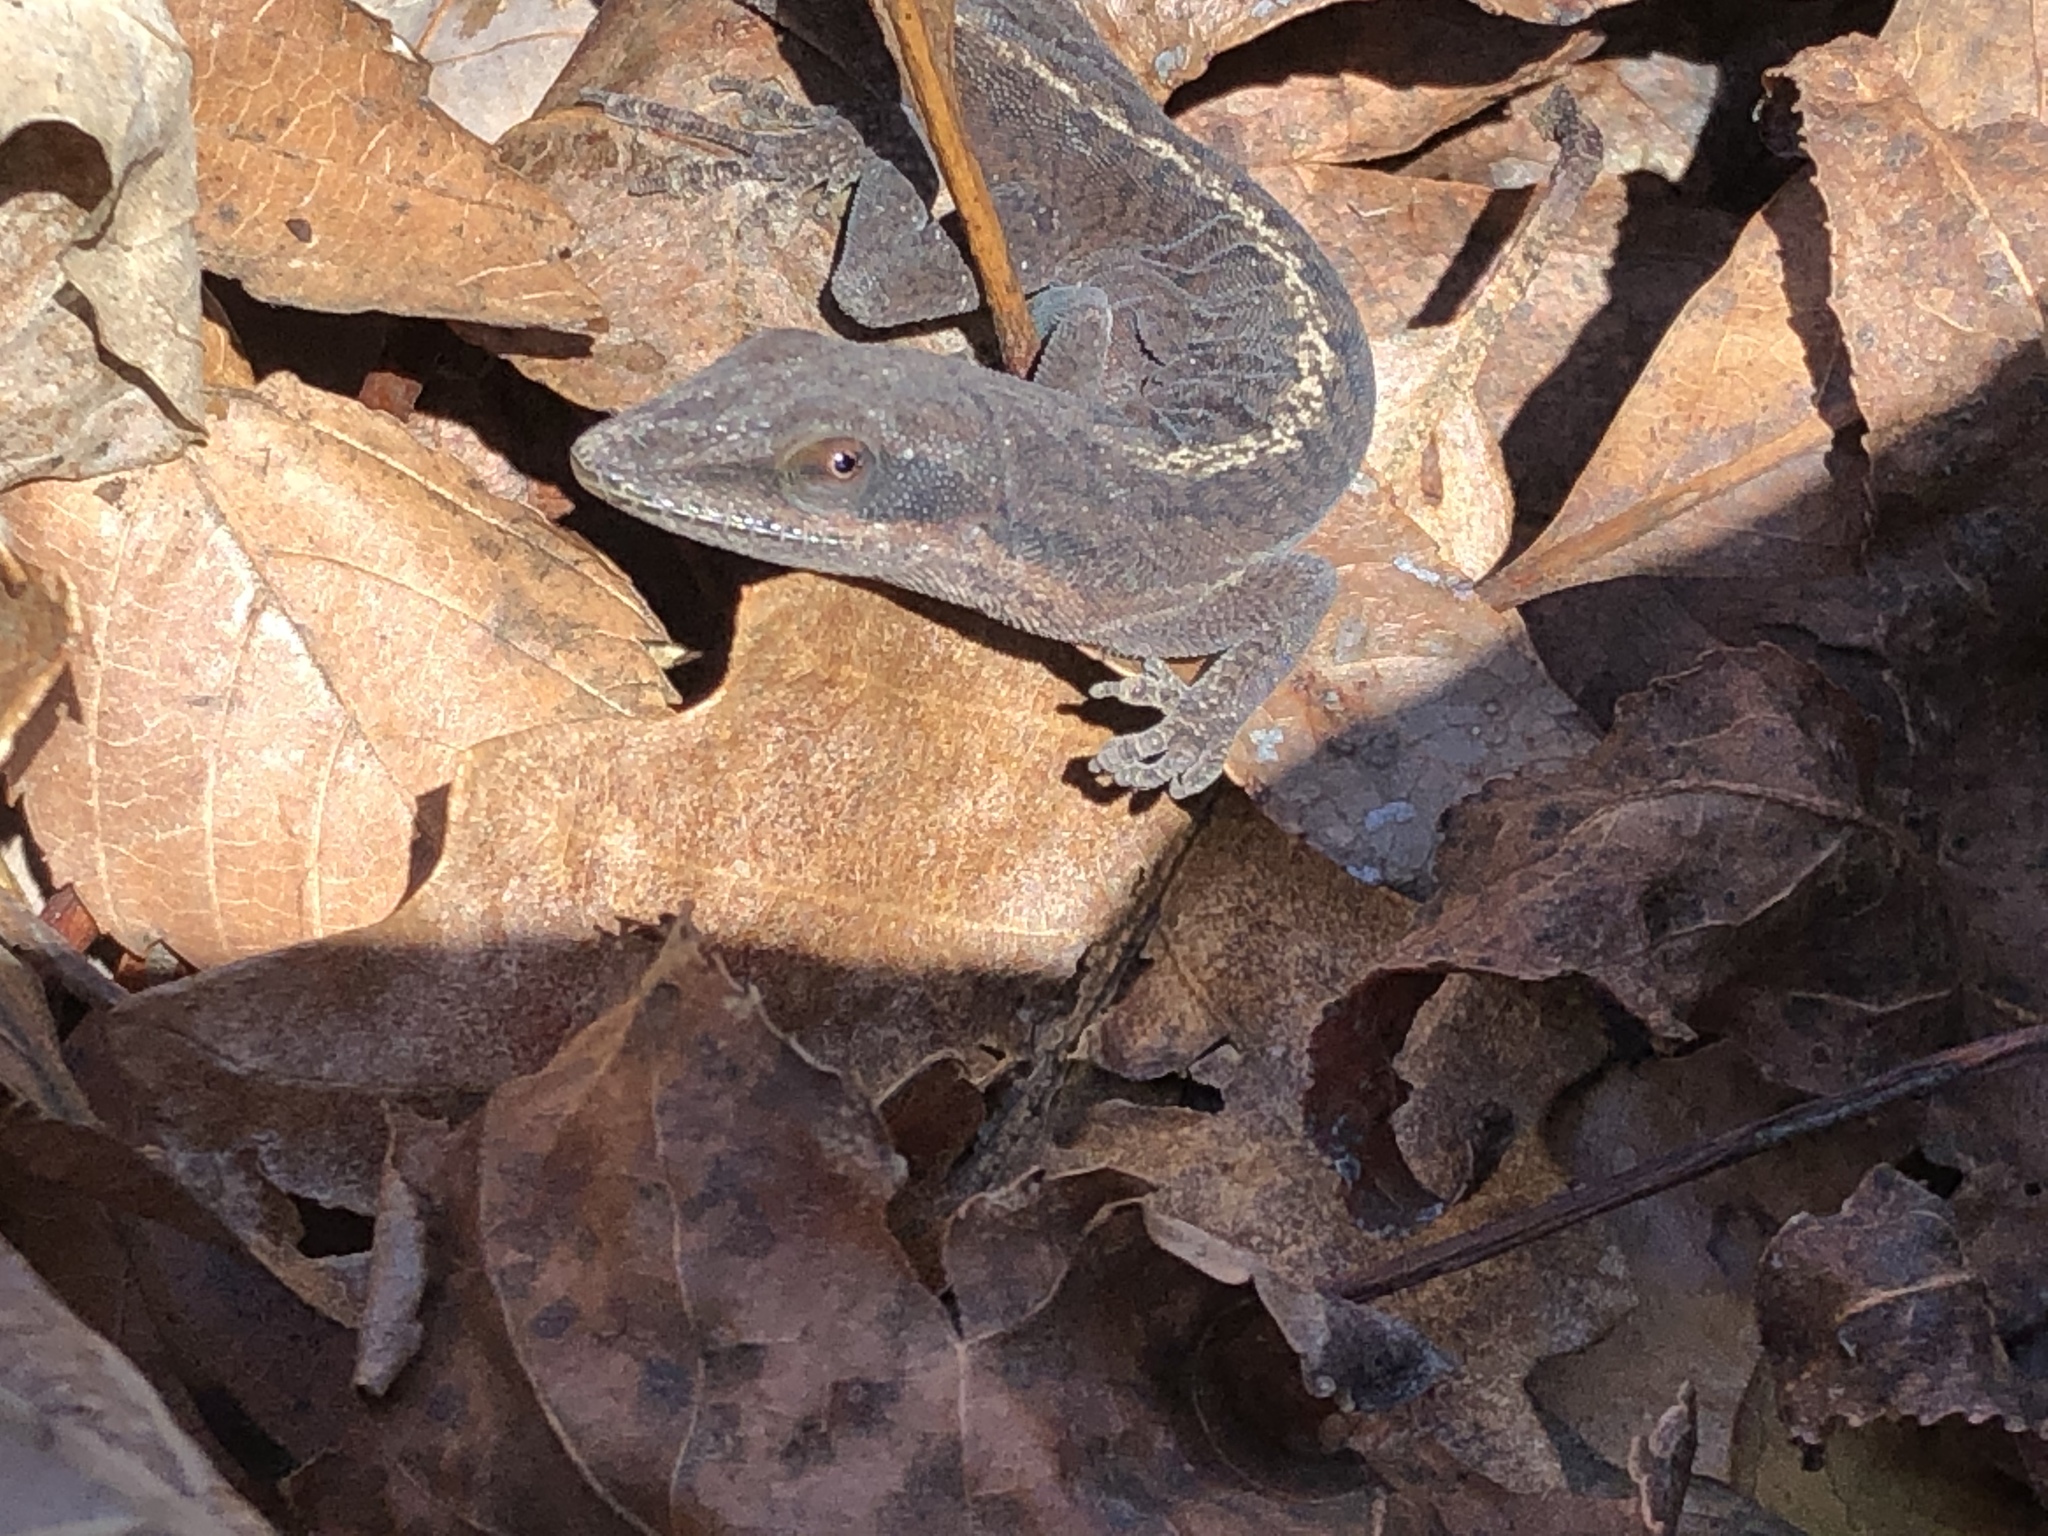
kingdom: Animalia
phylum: Chordata
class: Squamata
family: Dactyloidae
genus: Anolis
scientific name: Anolis carolinensis
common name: Green anole
